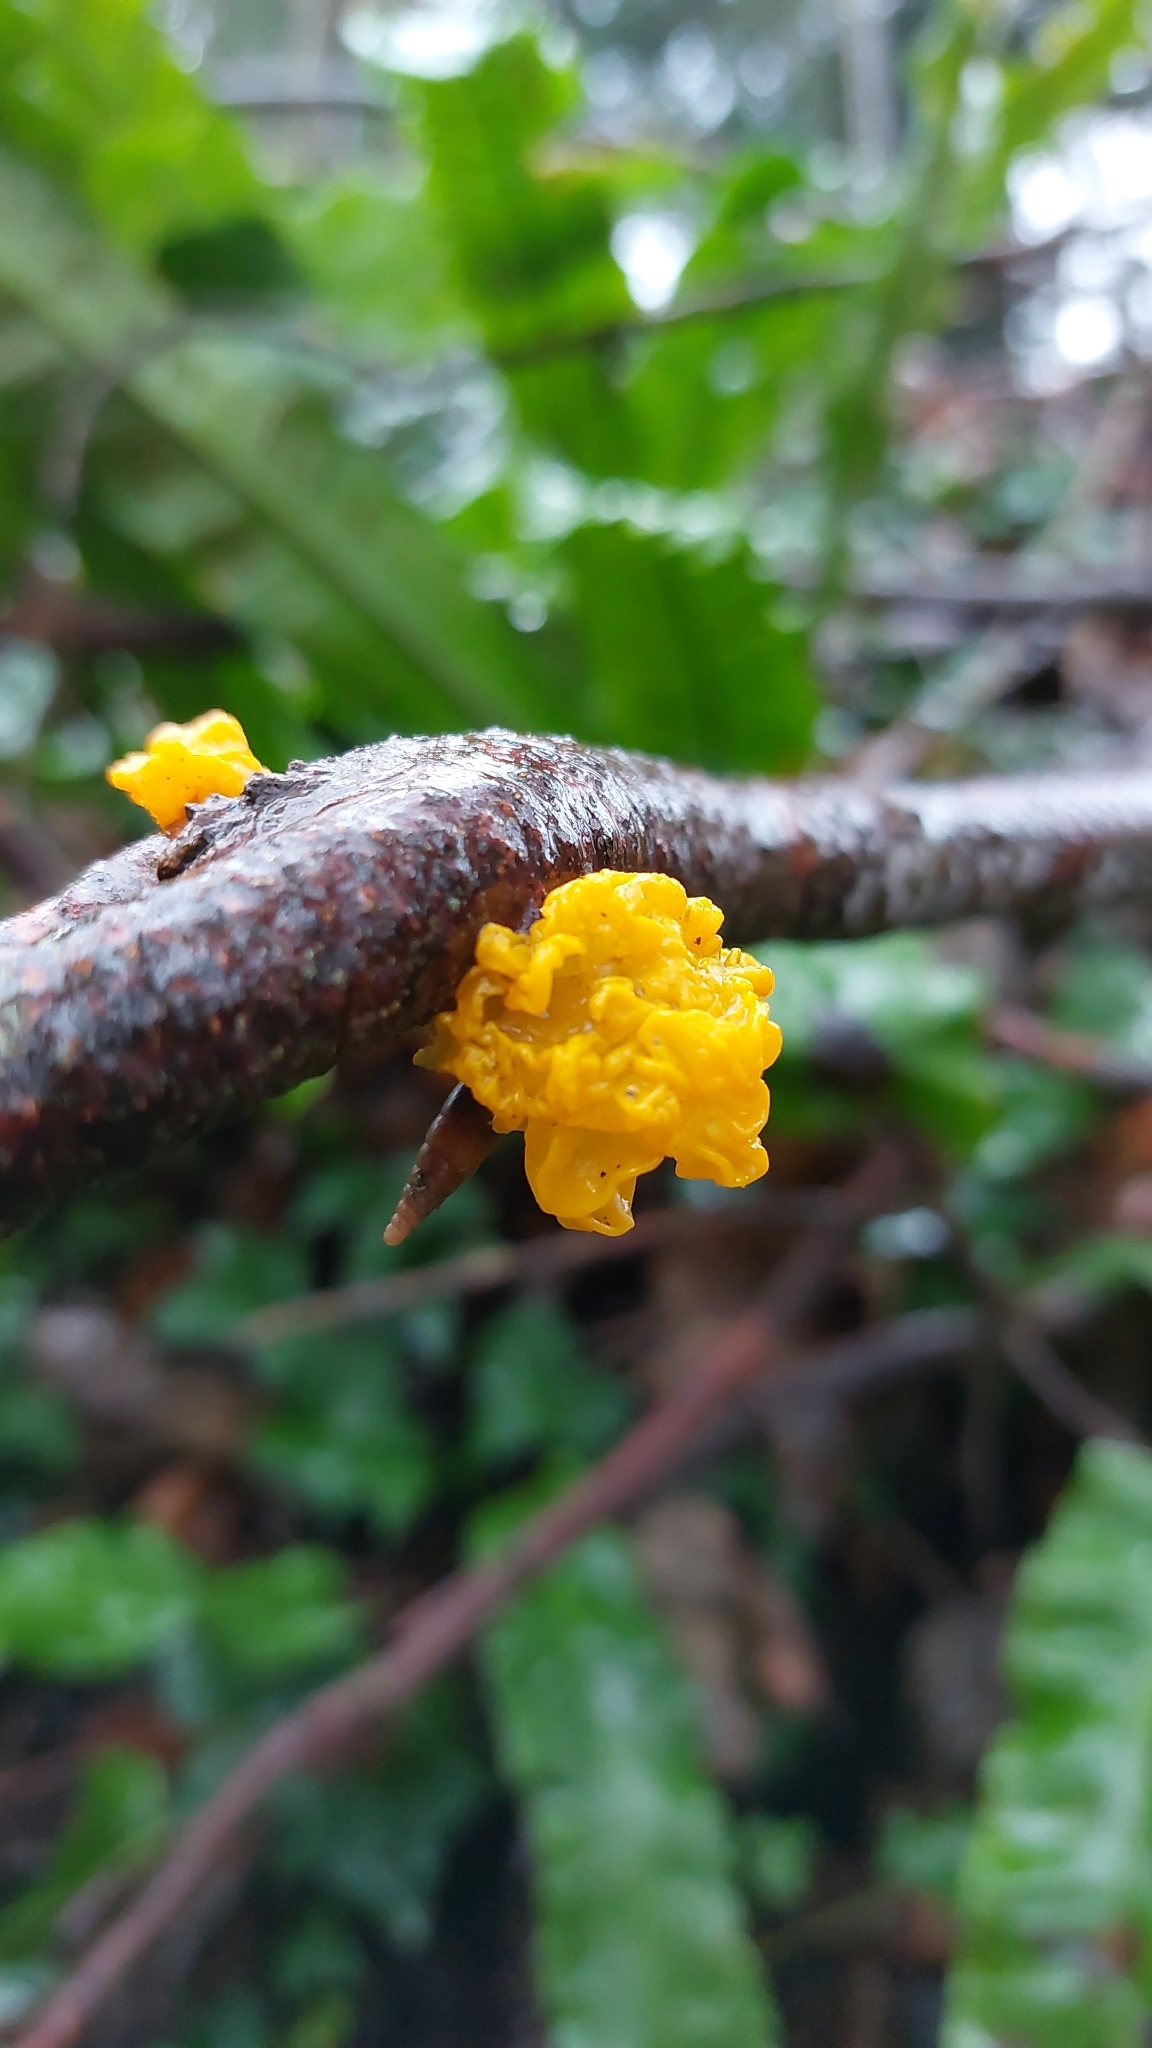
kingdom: Fungi
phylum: Basidiomycota
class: Tremellomycetes
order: Tremellales
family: Tremellaceae
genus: Tremella
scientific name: Tremella mesenterica
